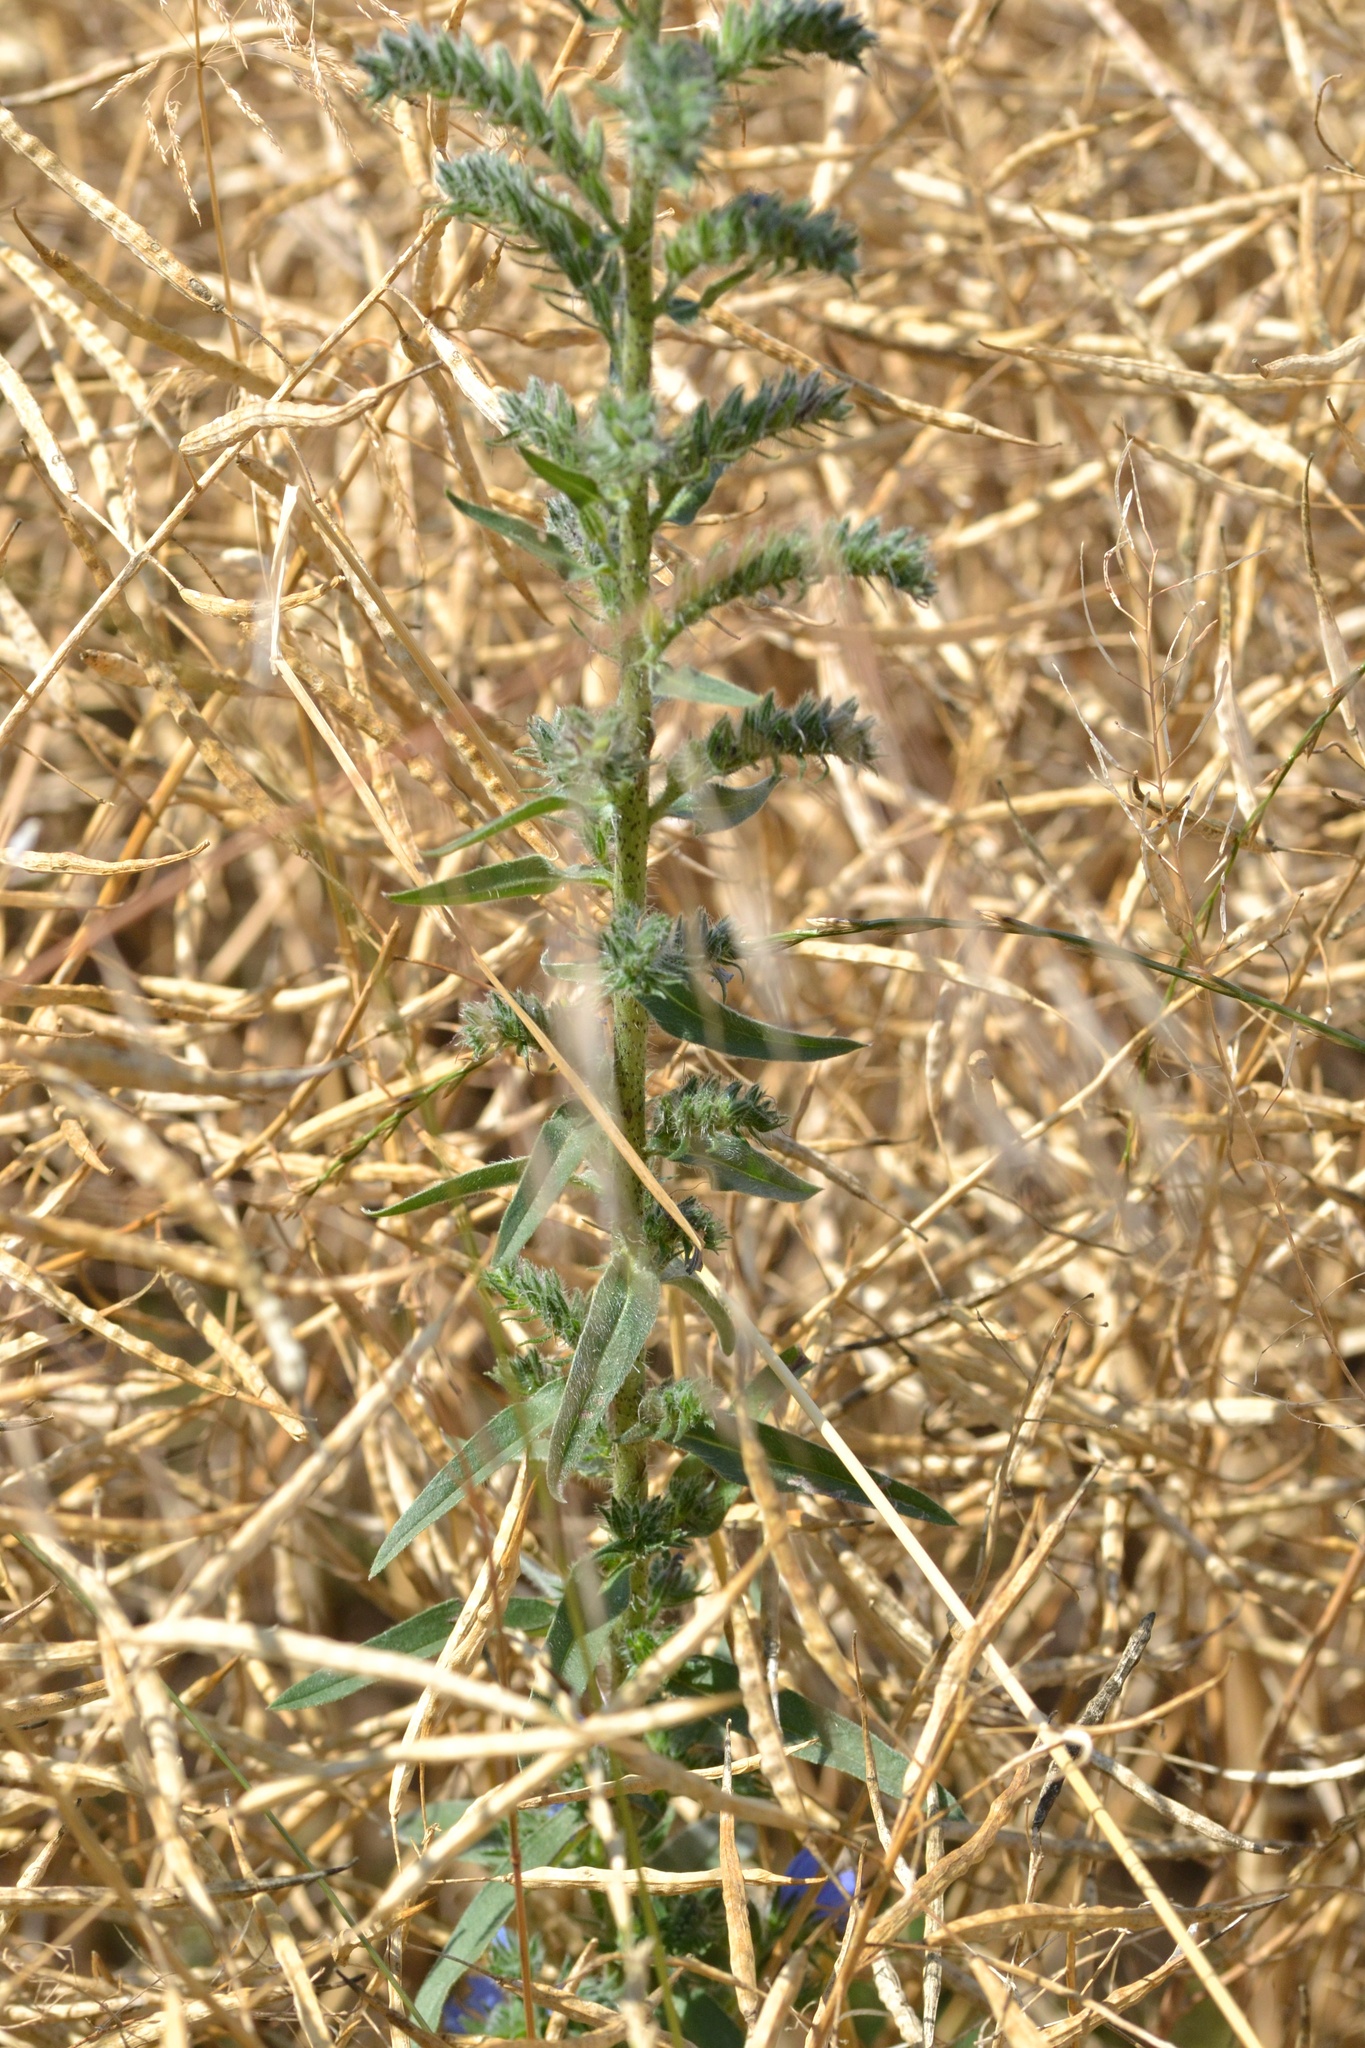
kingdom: Plantae
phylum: Tracheophyta
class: Magnoliopsida
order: Boraginales
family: Boraginaceae
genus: Echium
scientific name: Echium vulgare
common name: Common viper's bugloss
